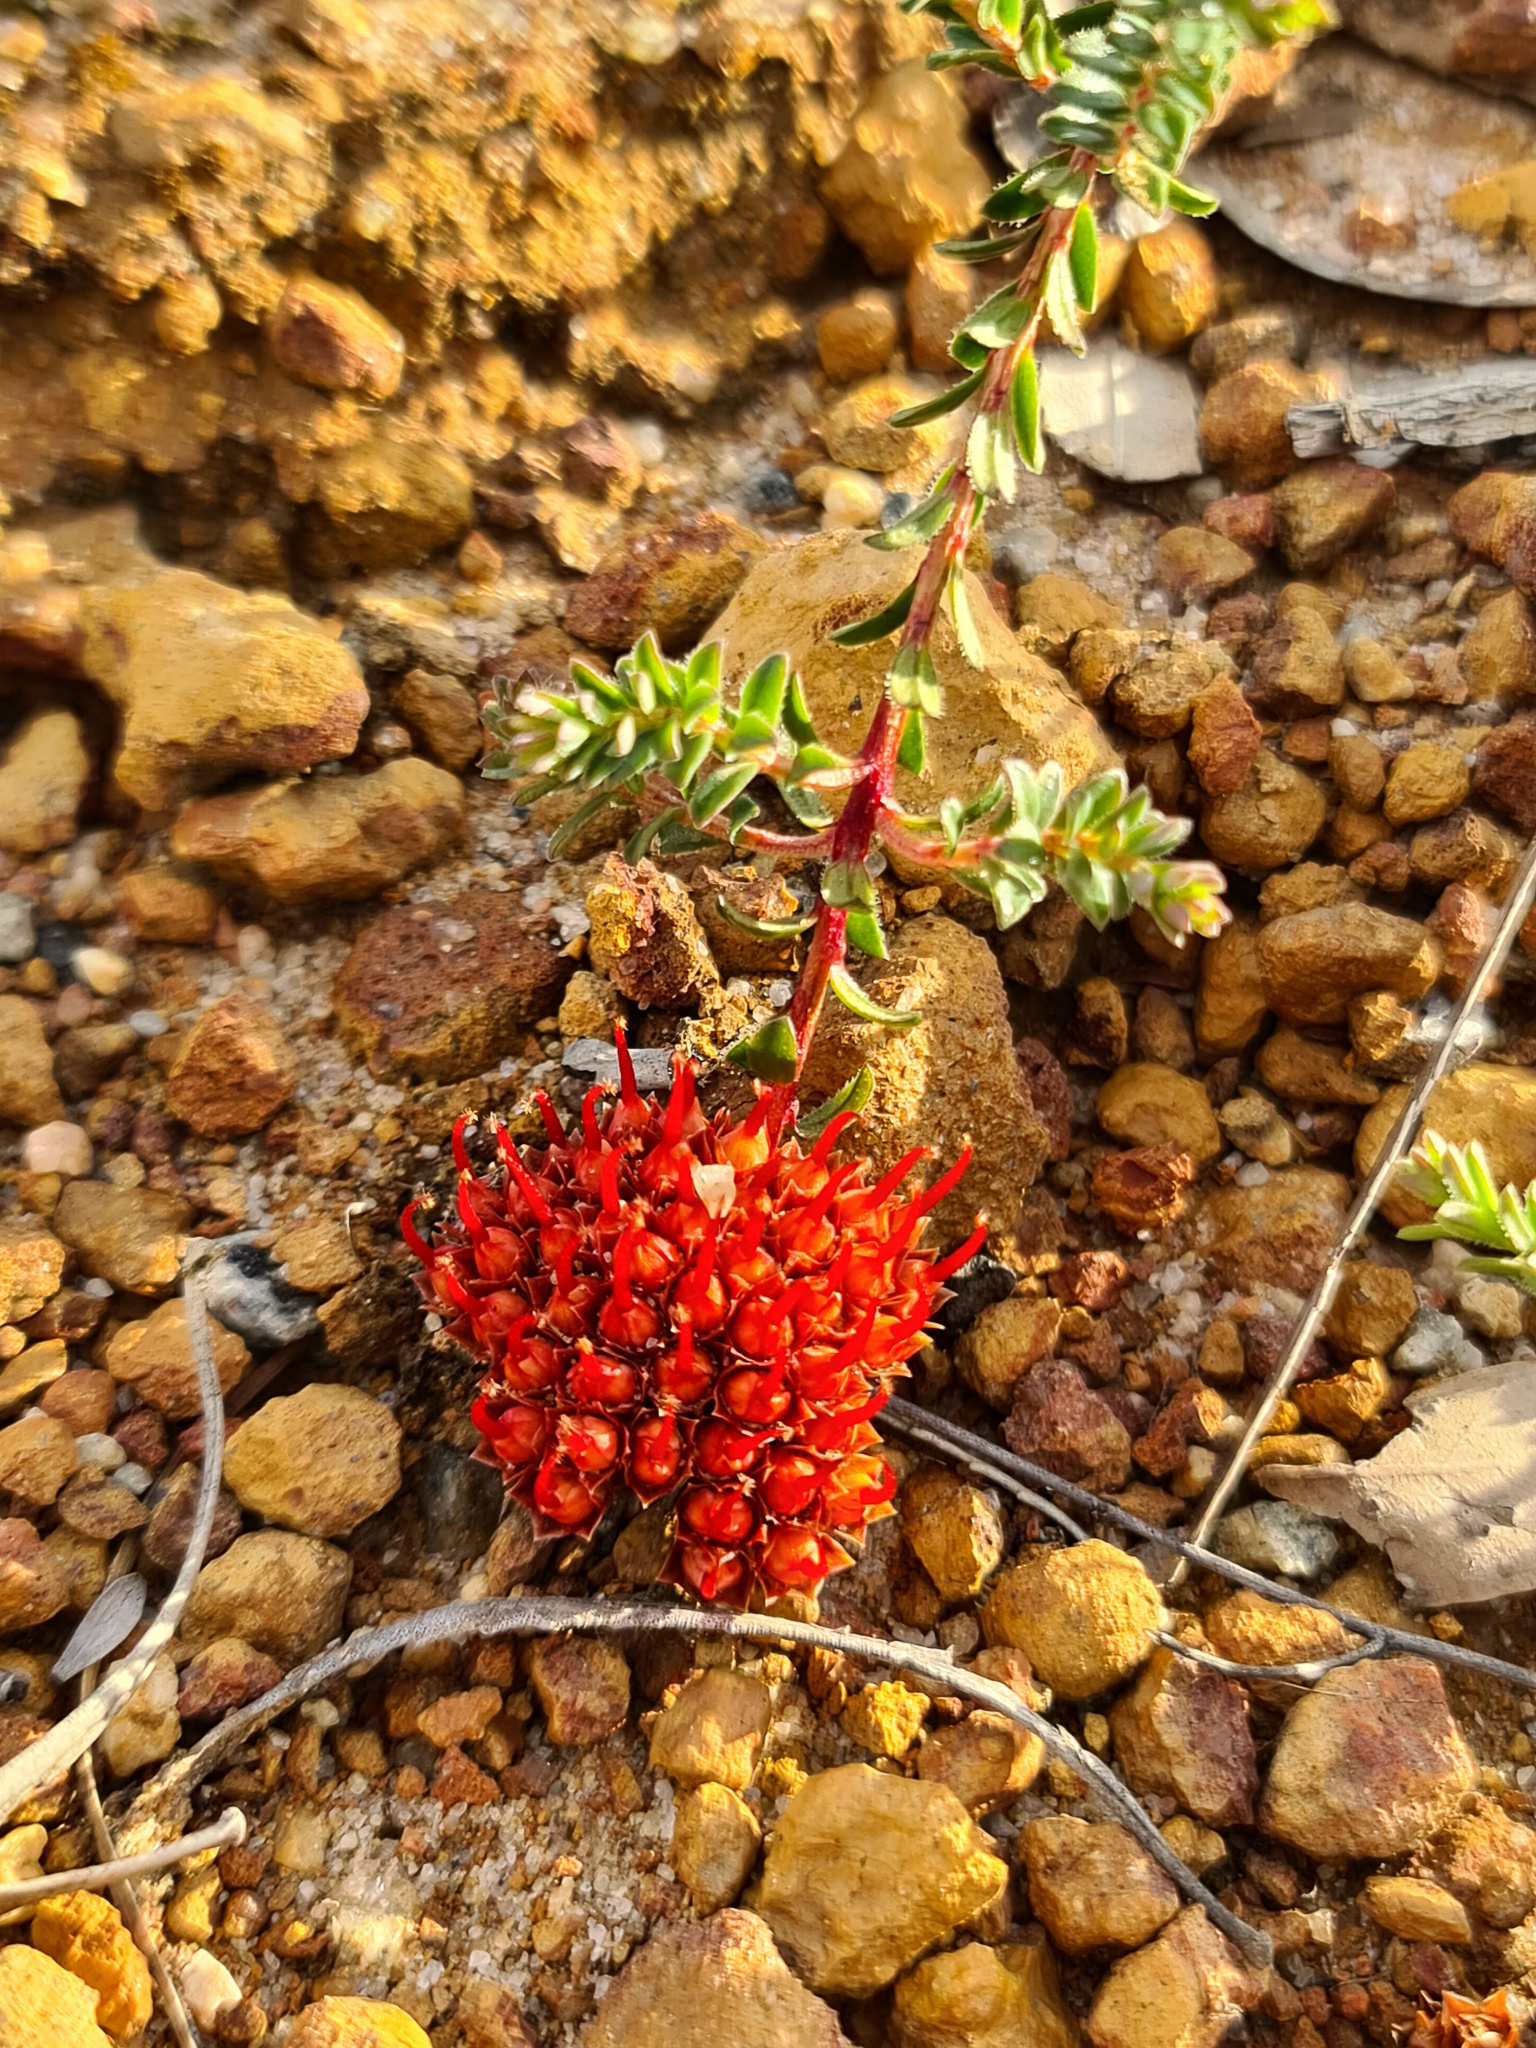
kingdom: Plantae
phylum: Tracheophyta
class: Magnoliopsida
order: Myrtales
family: Myrtaceae
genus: Darwinia
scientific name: Darwinia sanguinea
